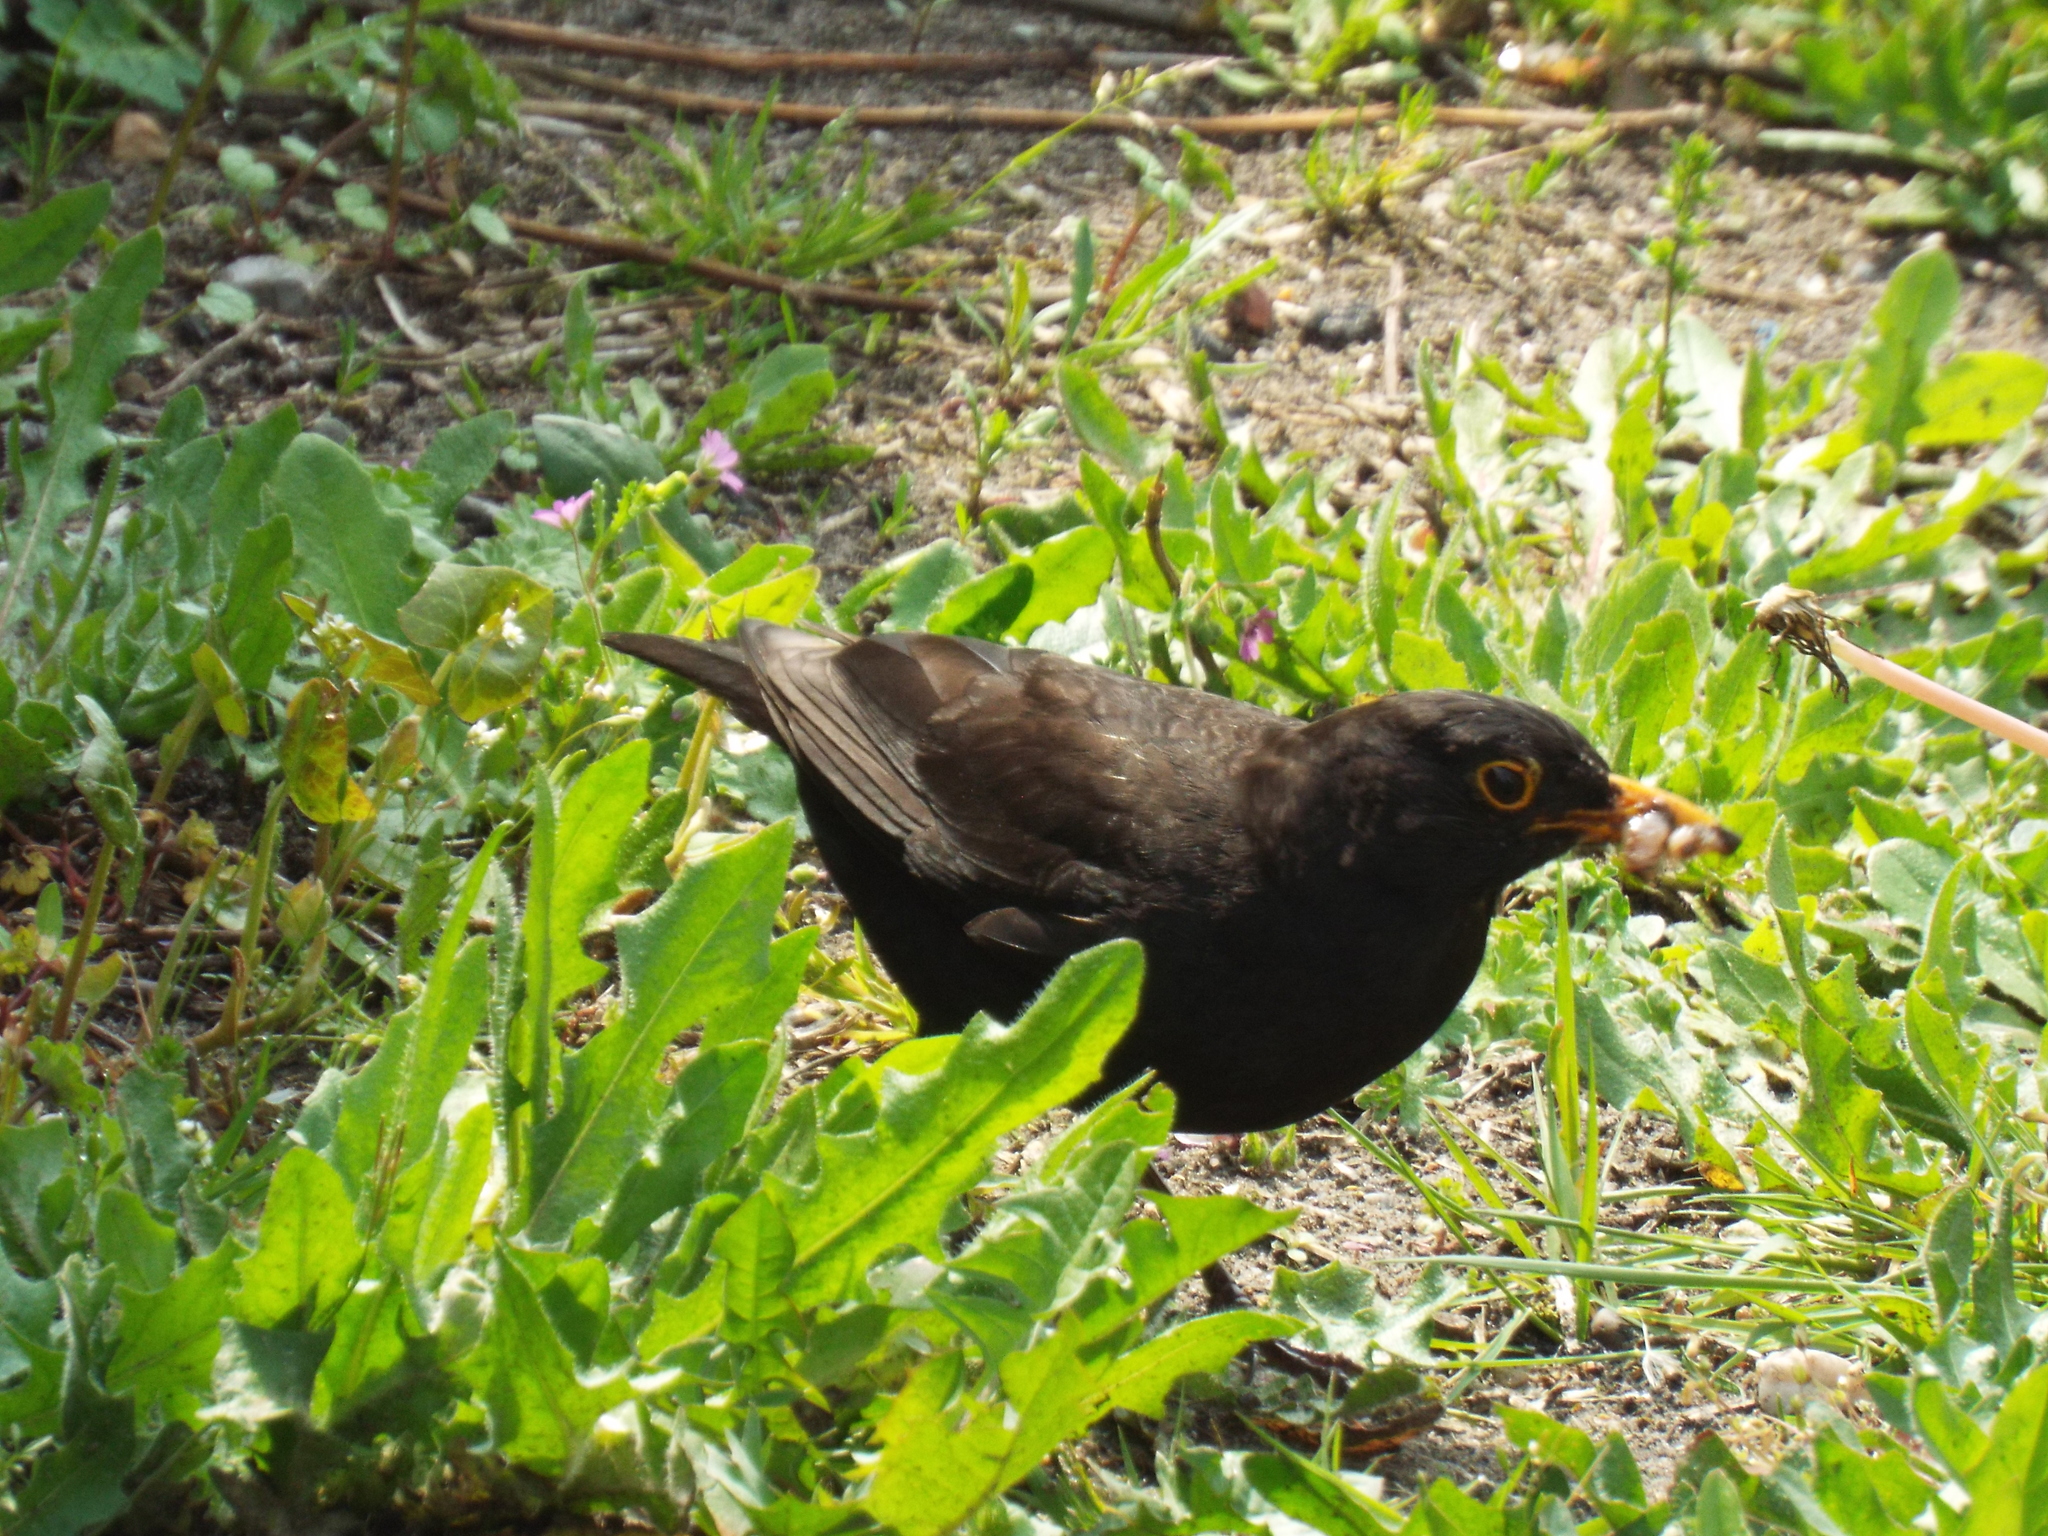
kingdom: Animalia
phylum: Chordata
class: Aves
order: Passeriformes
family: Turdidae
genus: Turdus
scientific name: Turdus merula
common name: Common blackbird
